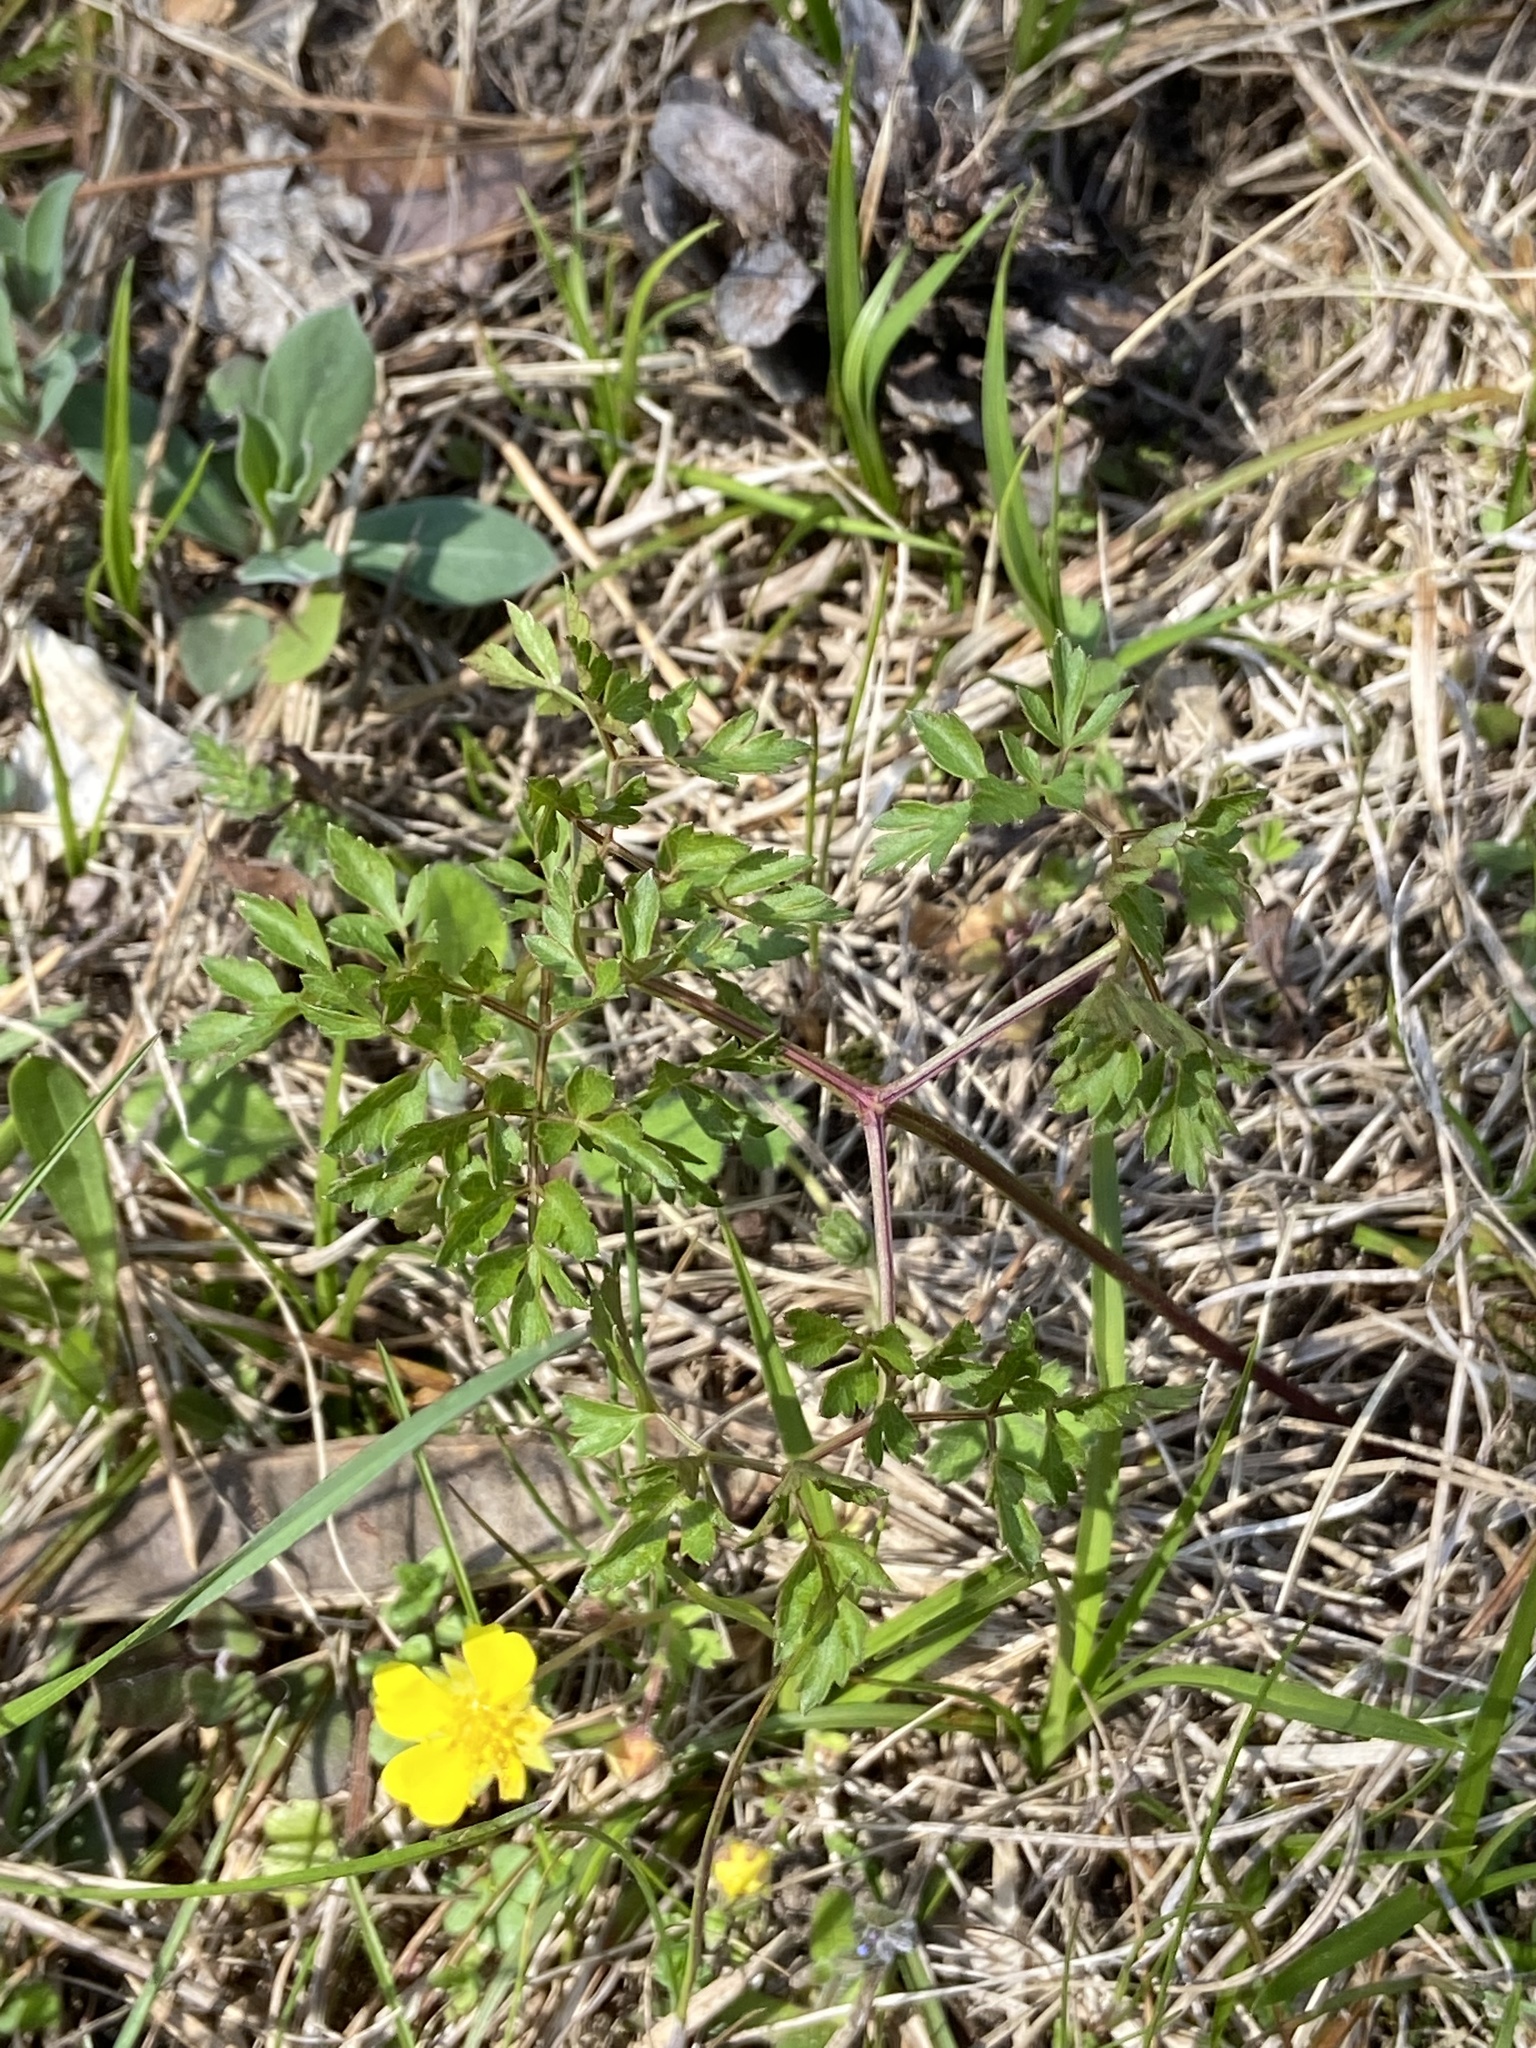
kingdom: Plantae
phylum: Tracheophyta
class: Magnoliopsida
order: Apiales
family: Apiaceae
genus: Oreoselinum
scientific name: Oreoselinum nigrum
